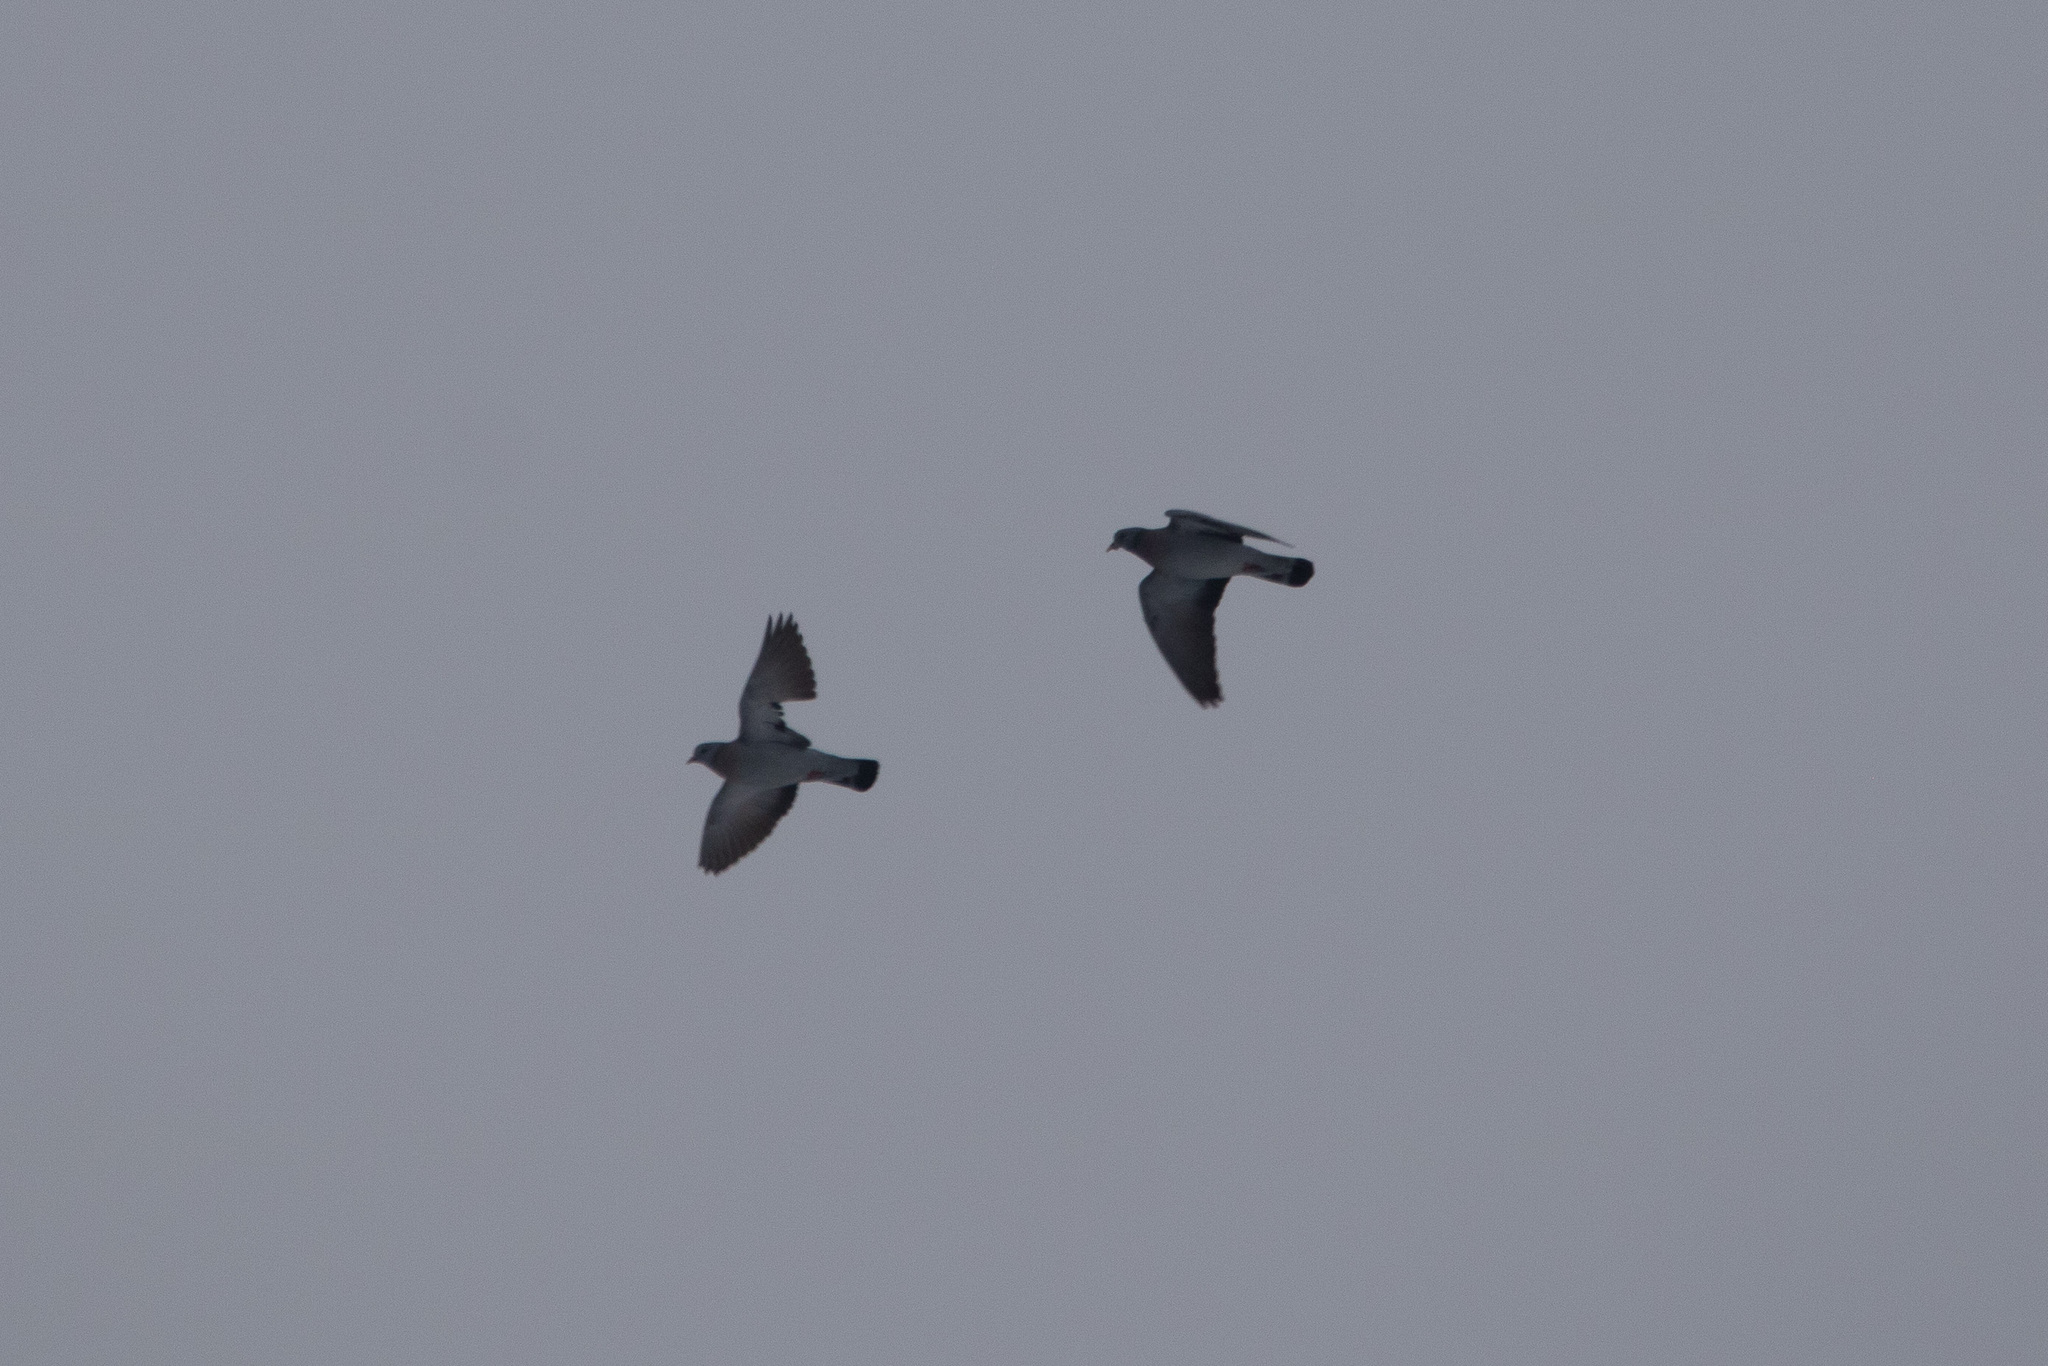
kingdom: Animalia
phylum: Chordata
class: Aves
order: Columbiformes
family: Columbidae
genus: Columba
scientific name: Columba oenas
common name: Stock dove
